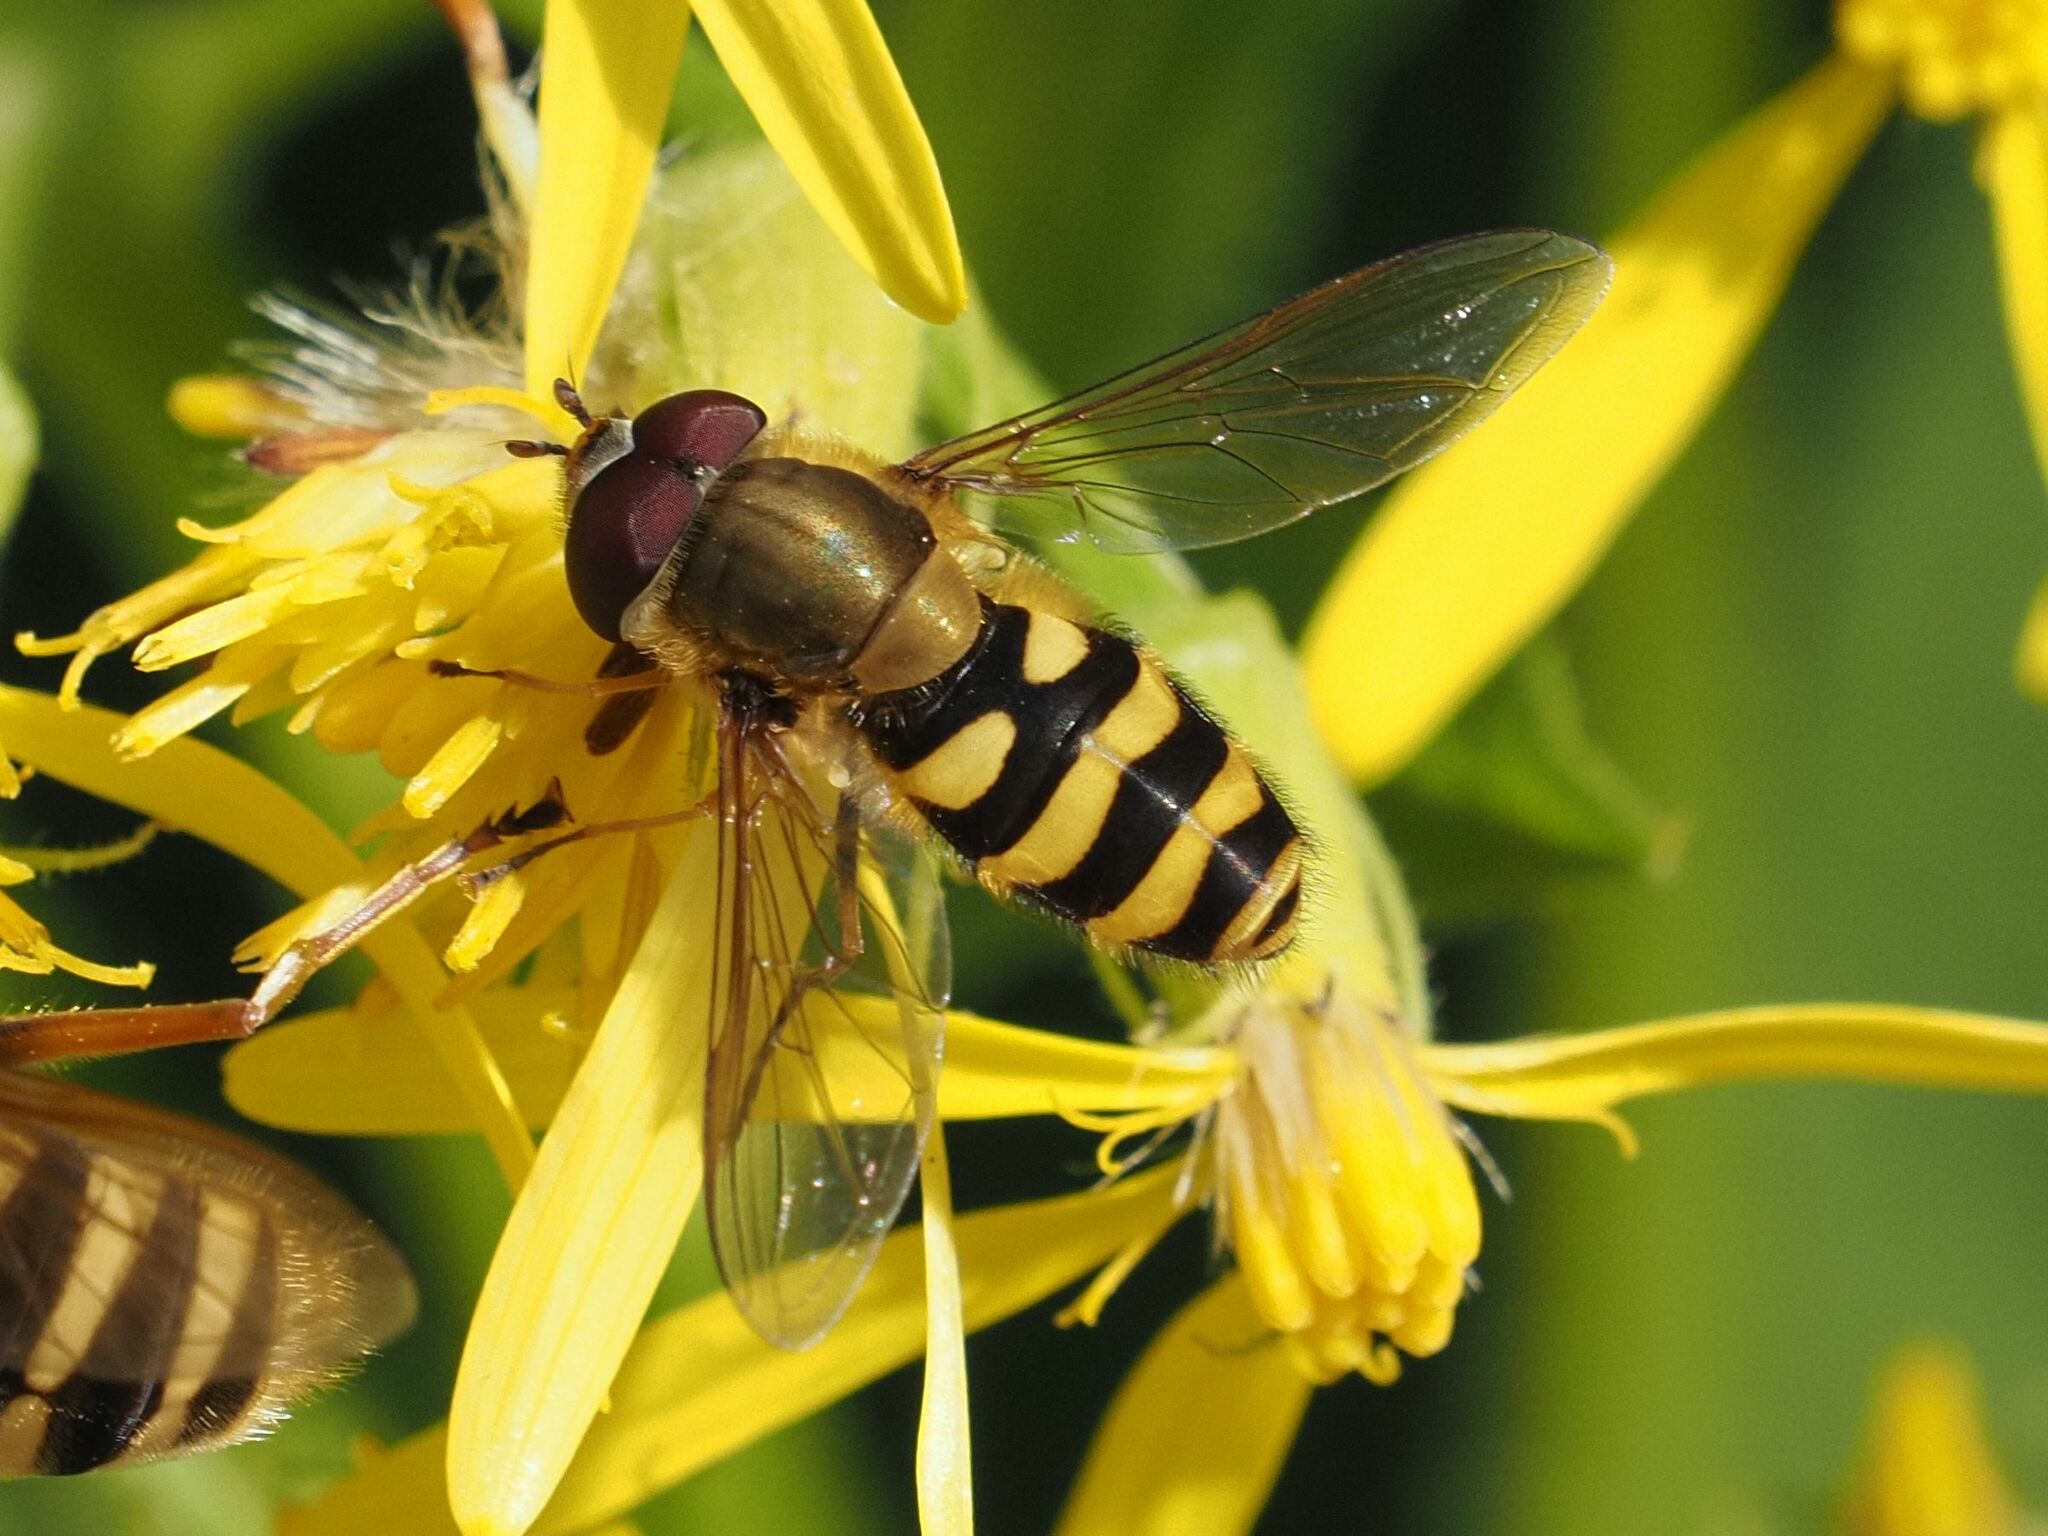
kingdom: Animalia
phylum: Arthropoda
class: Insecta
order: Diptera
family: Syrphidae
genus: Syrphus
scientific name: Syrphus
